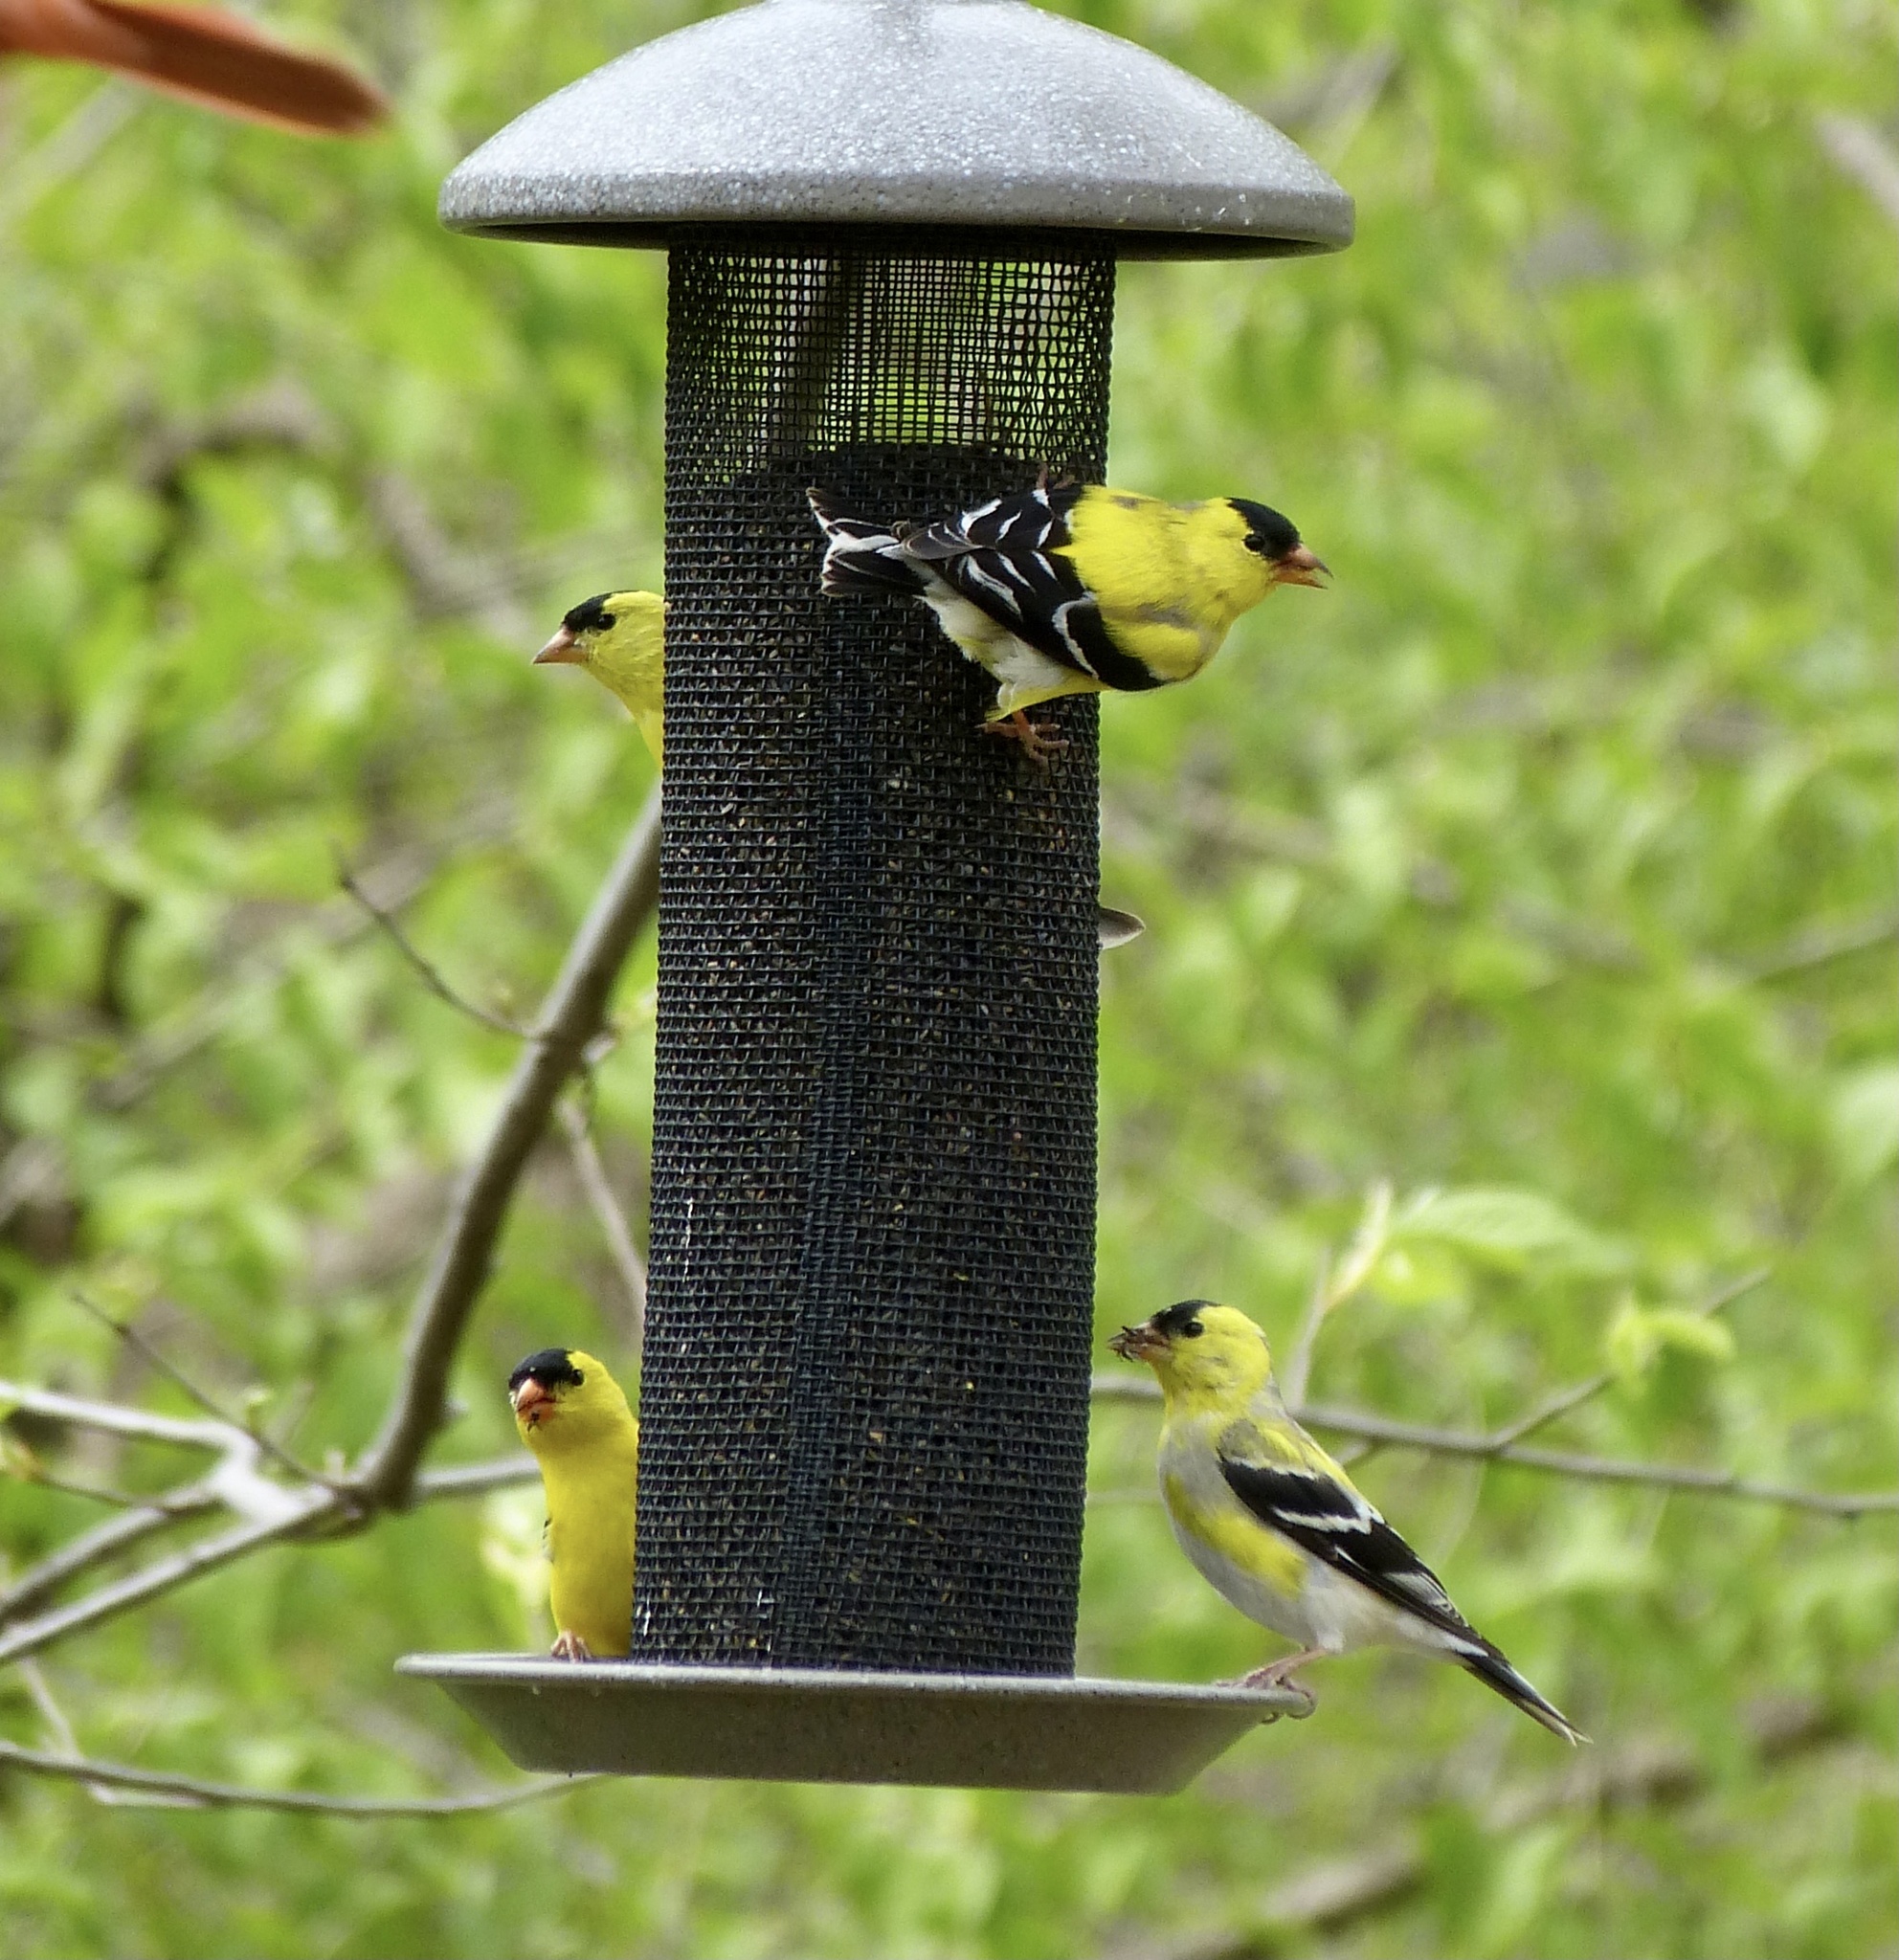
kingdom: Animalia
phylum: Chordata
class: Aves
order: Passeriformes
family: Fringillidae
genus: Spinus
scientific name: Spinus tristis
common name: American goldfinch
